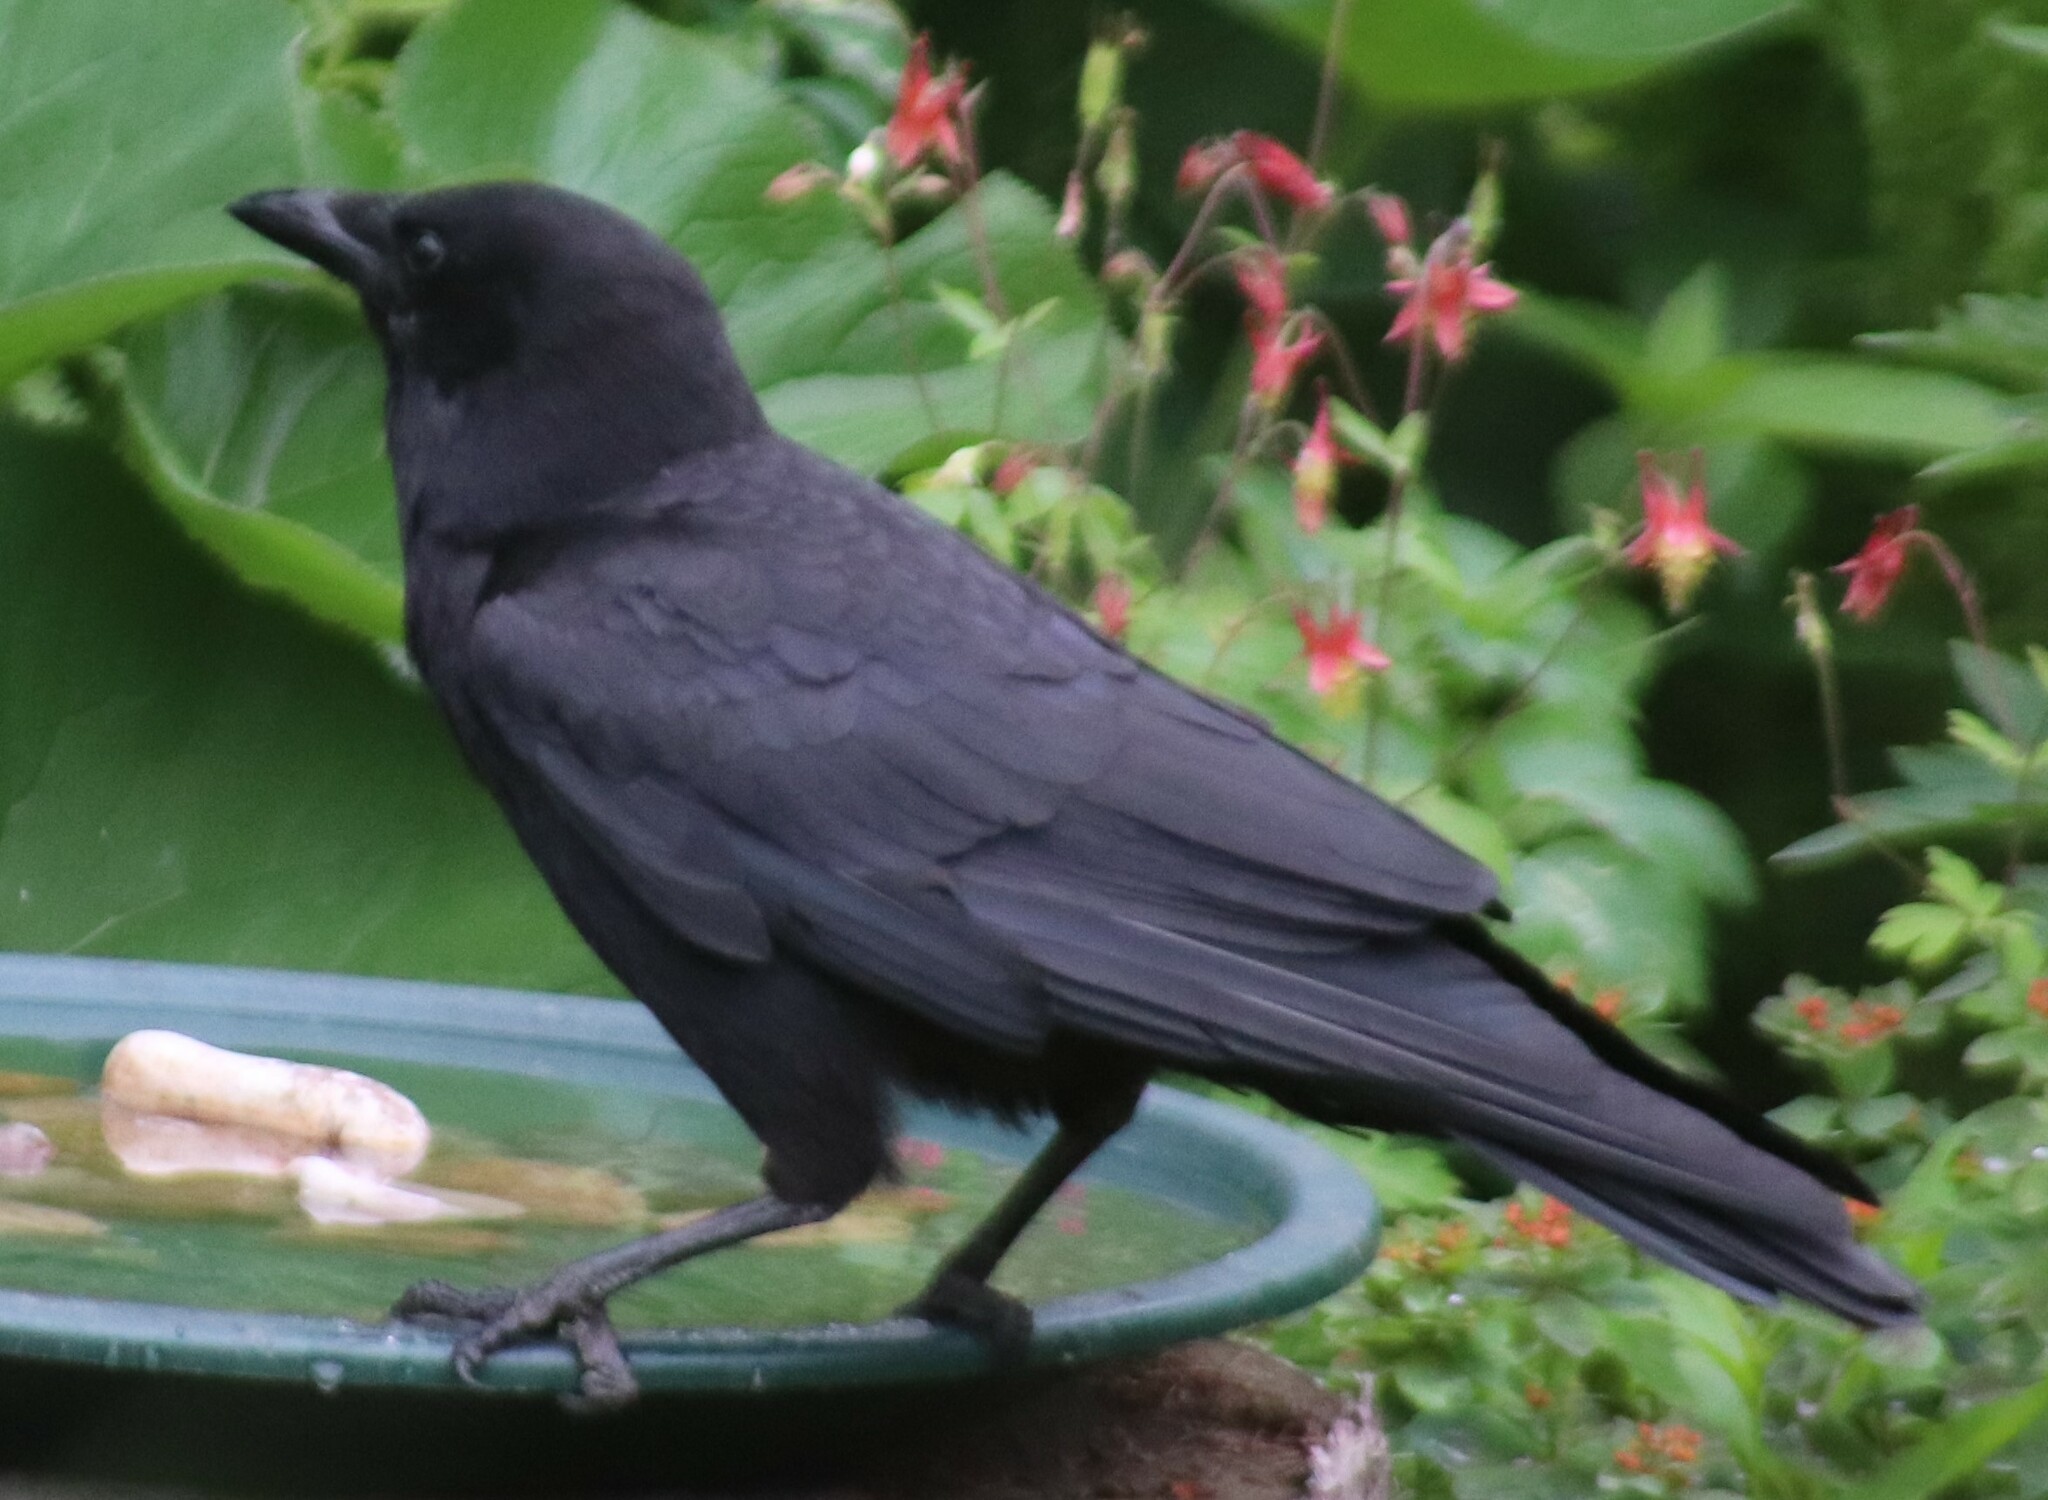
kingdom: Animalia
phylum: Chordata
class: Aves
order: Passeriformes
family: Corvidae
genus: Corvus
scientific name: Corvus brachyrhynchos
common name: American crow
